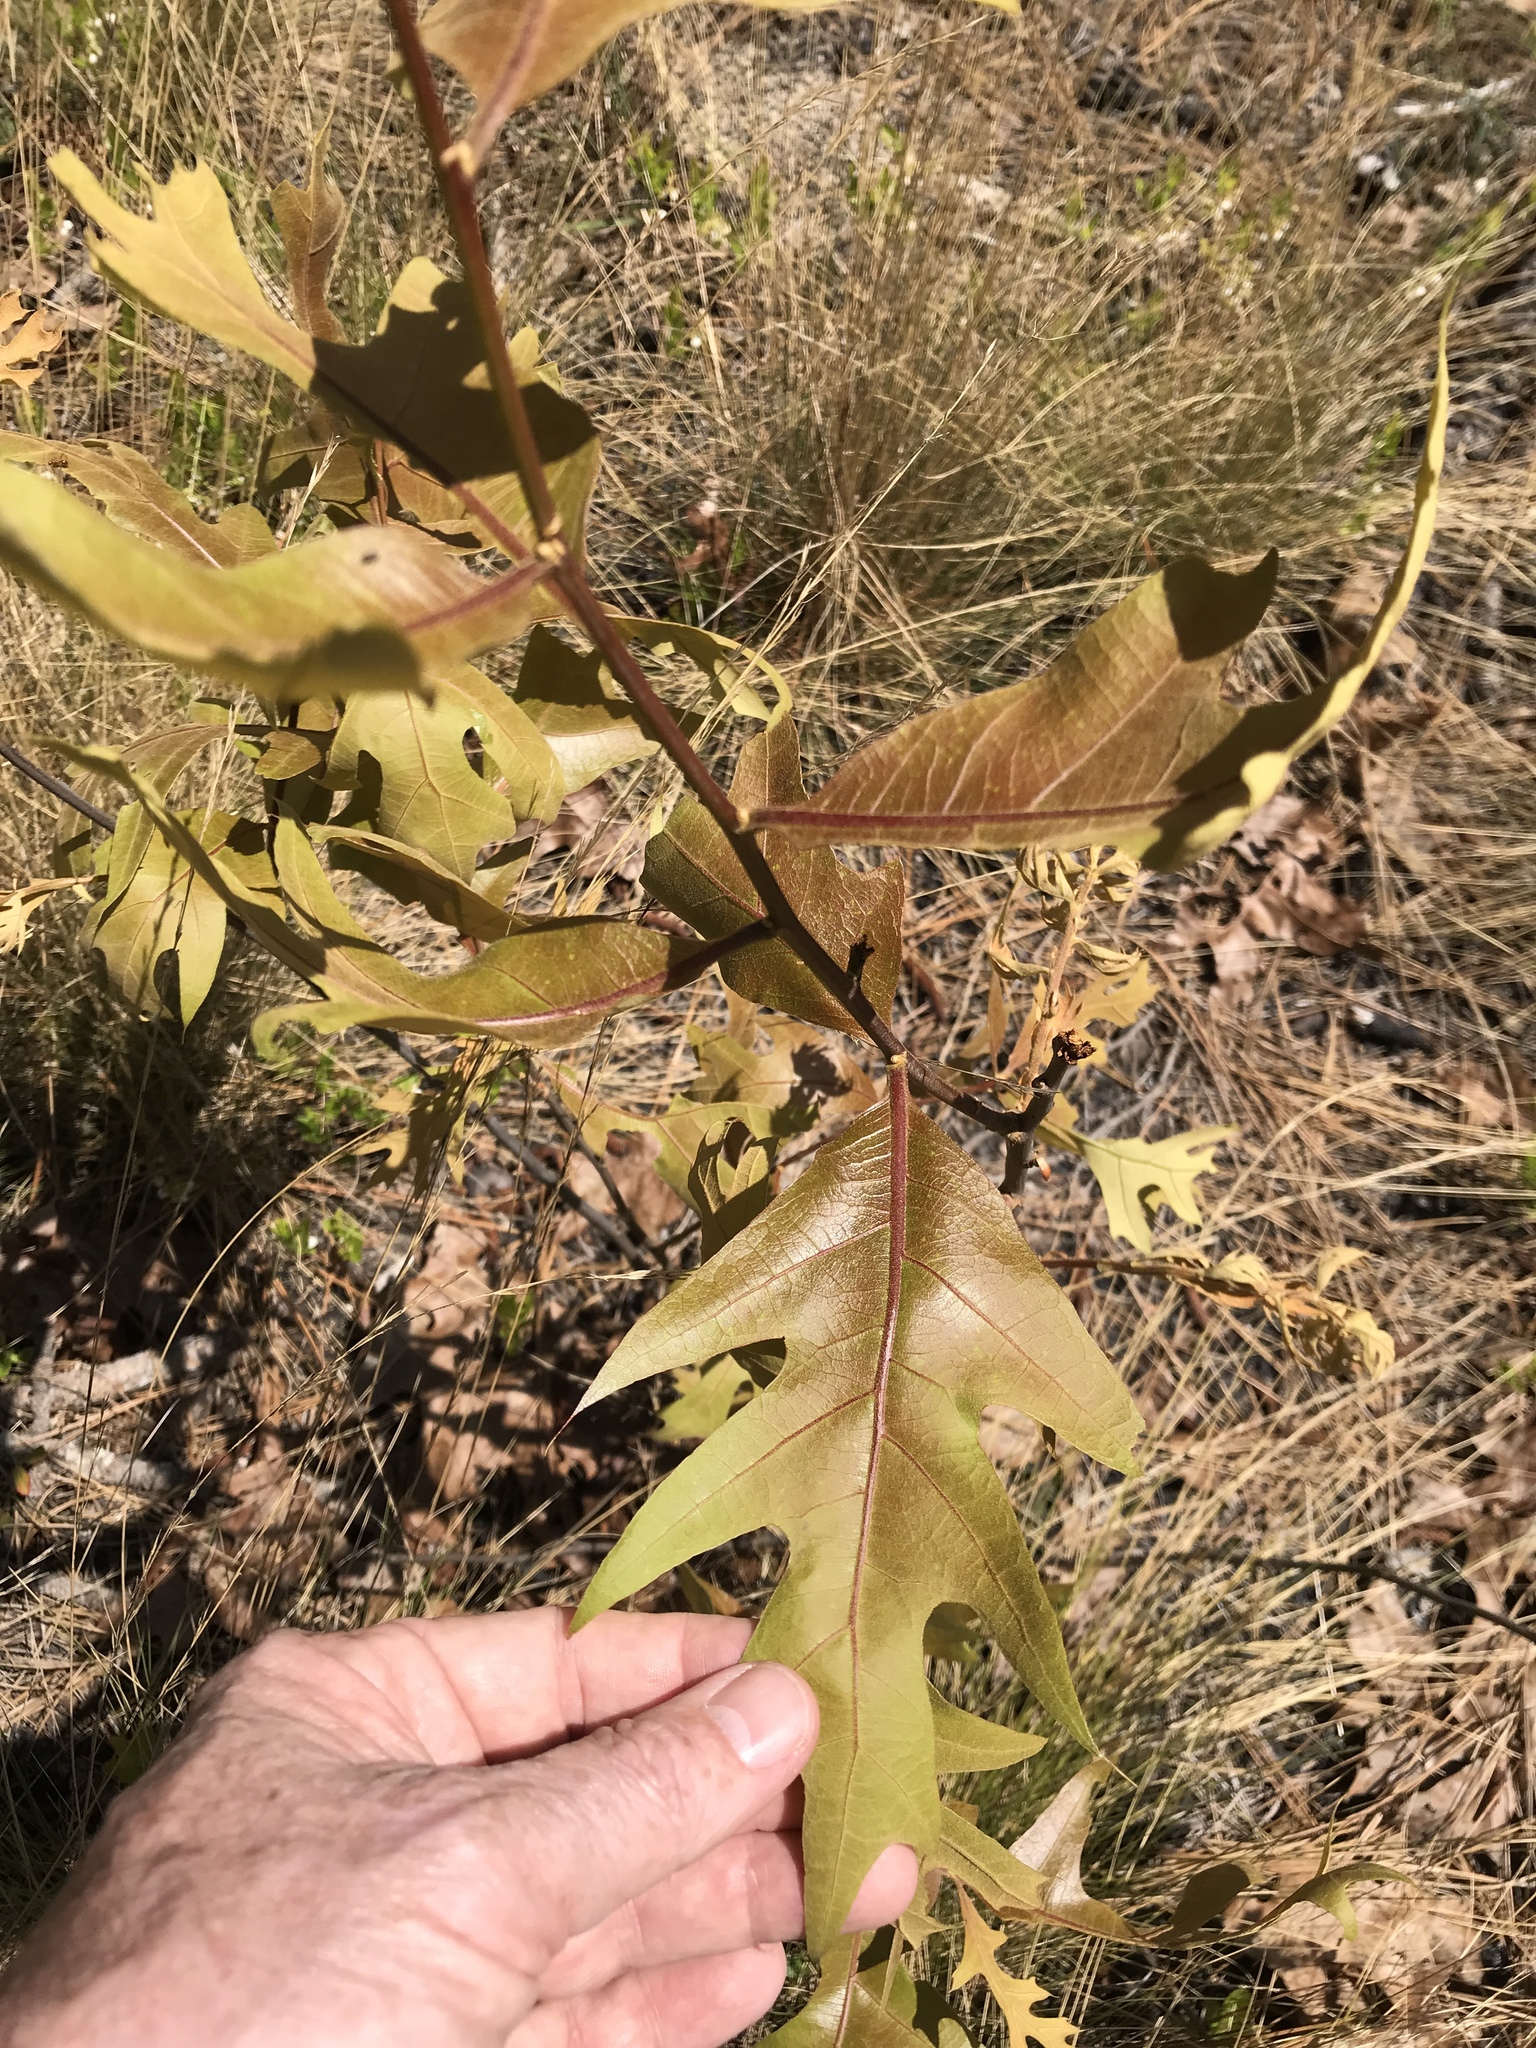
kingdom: Plantae
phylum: Tracheophyta
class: Magnoliopsida
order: Fagales
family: Fagaceae
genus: Quercus
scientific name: Quercus laevis
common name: Turkey oak
